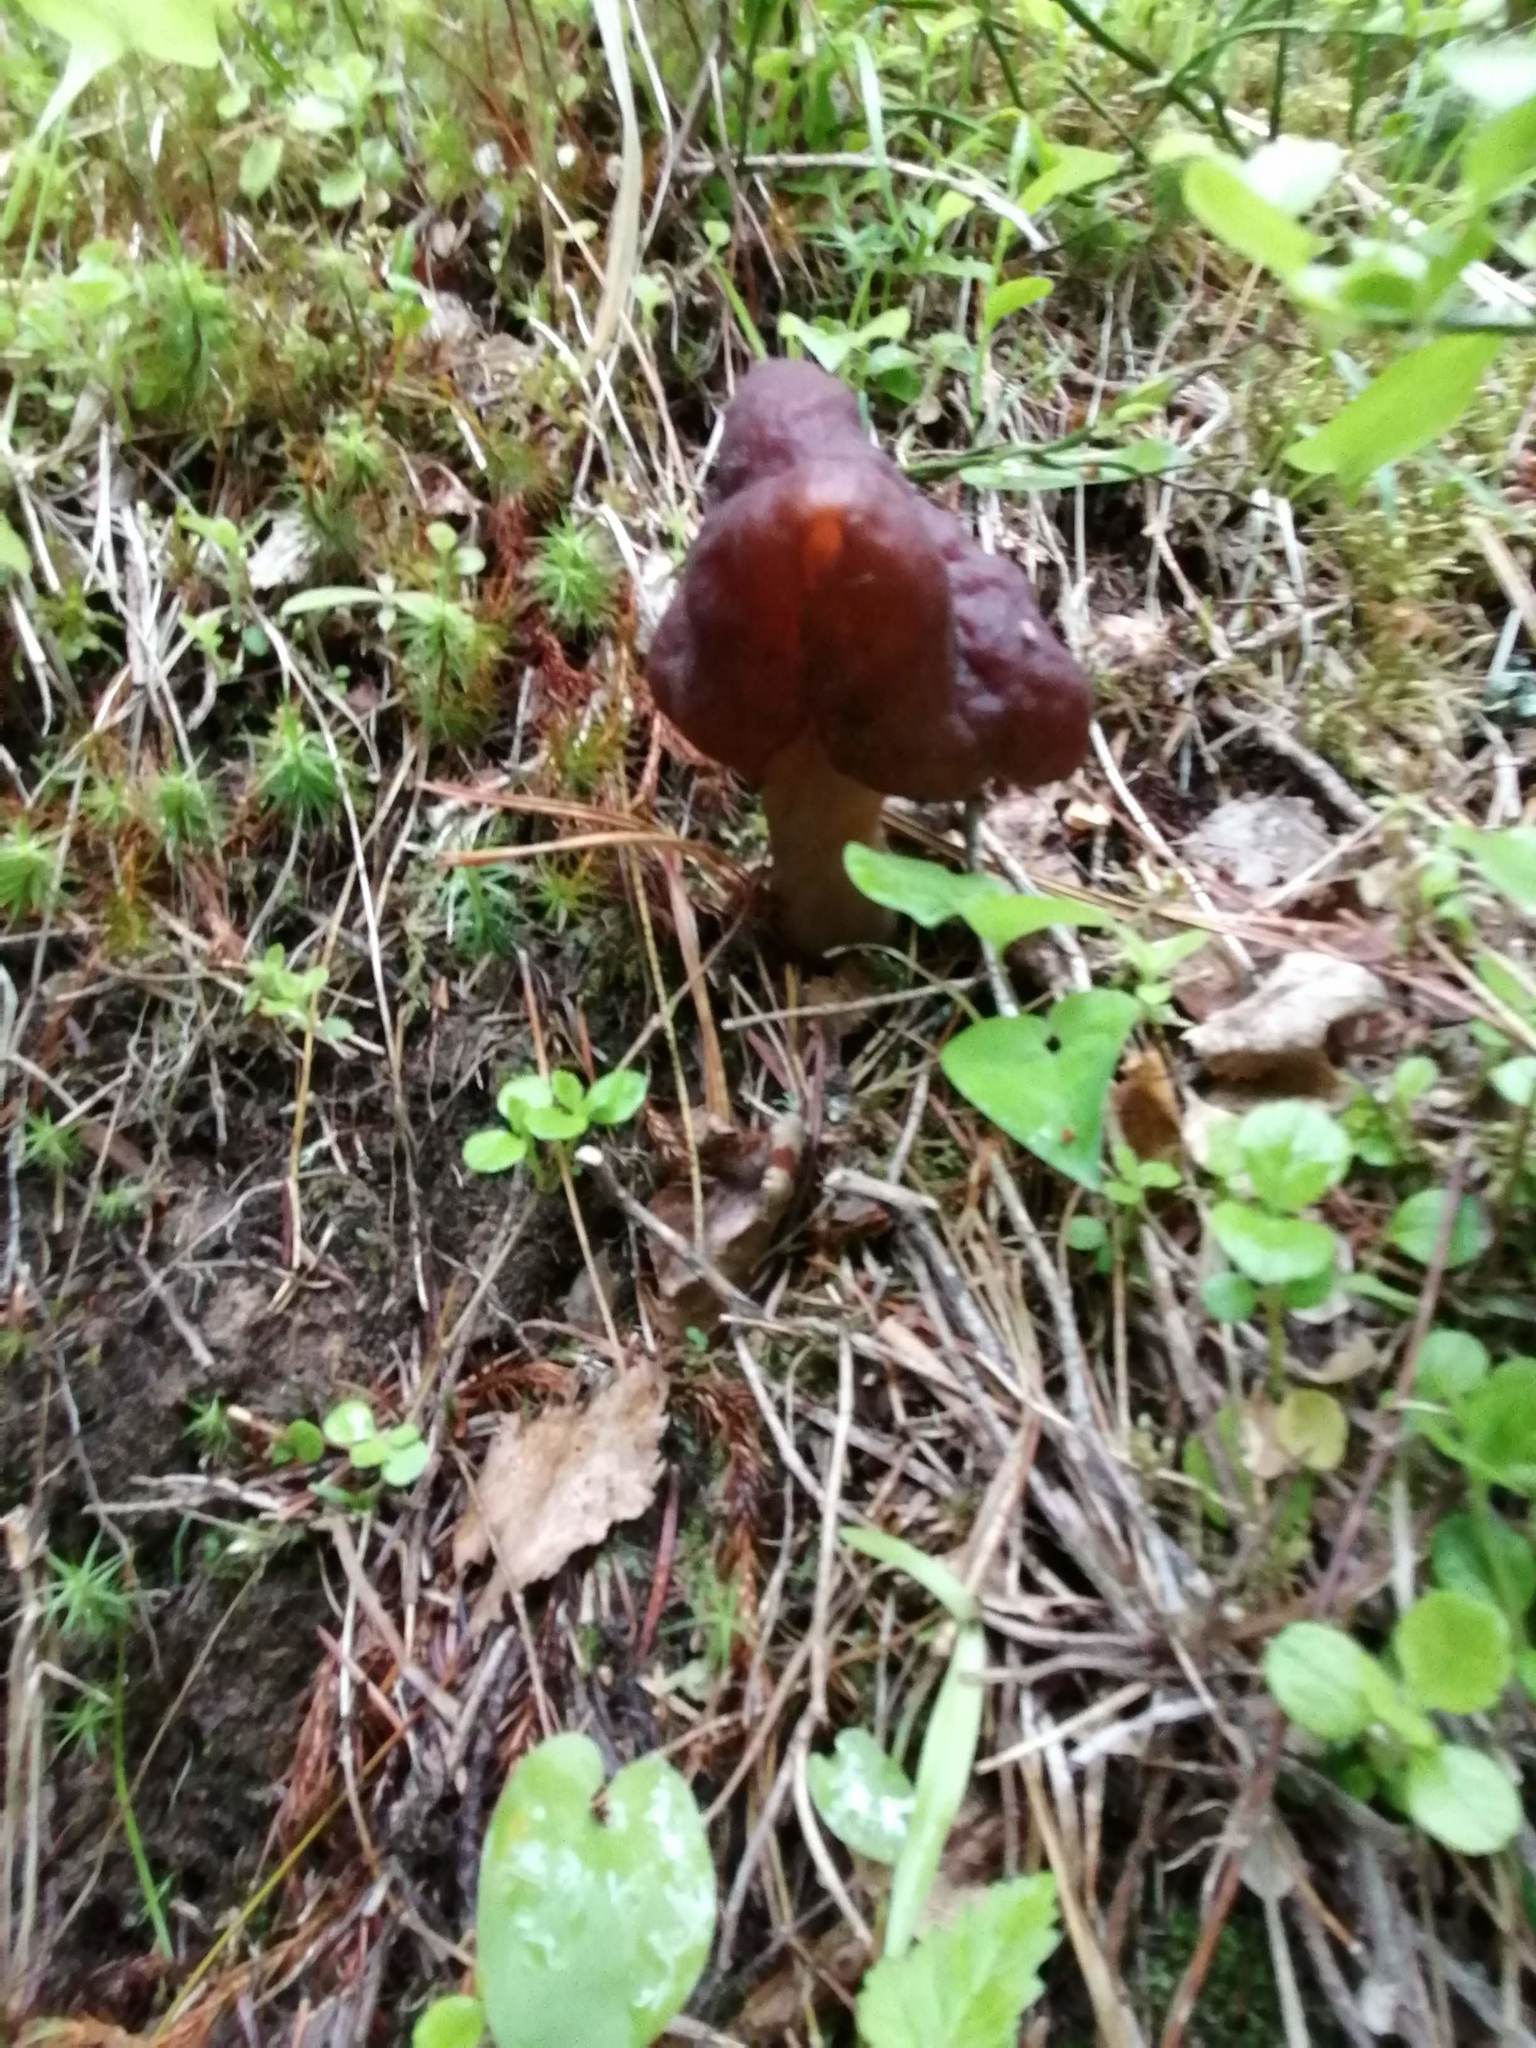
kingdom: Fungi
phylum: Ascomycota
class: Pezizomycetes
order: Pezizales
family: Discinaceae
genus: Gyromitra
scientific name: Gyromitra infula
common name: Pouched false morel
